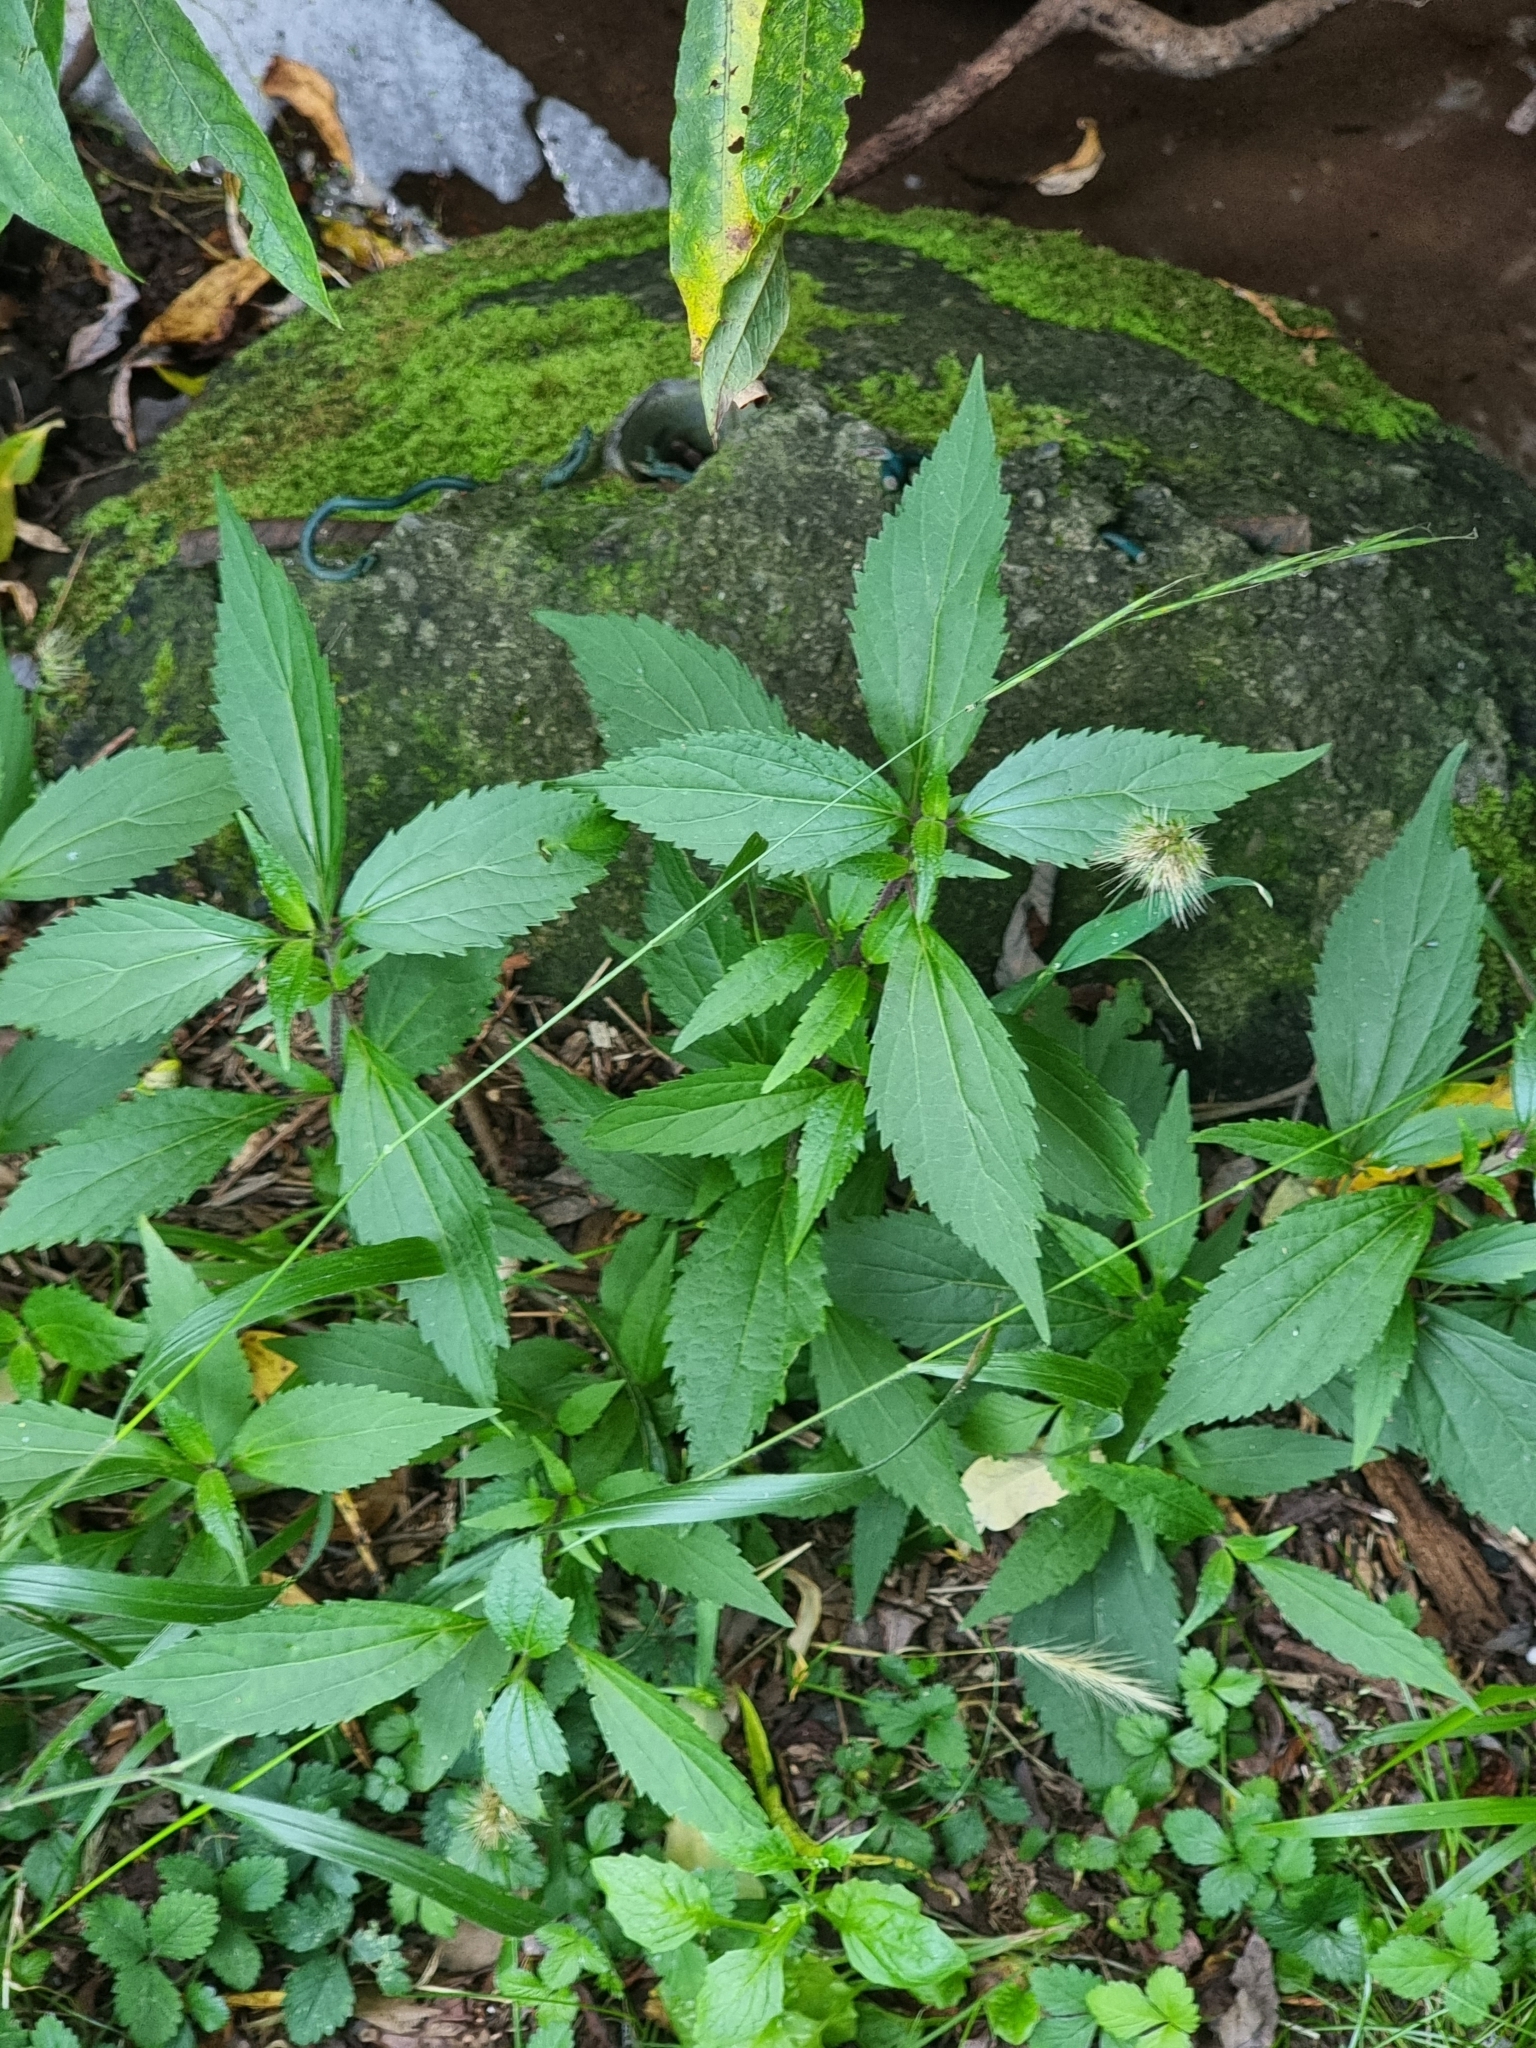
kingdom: Plantae
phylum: Tracheophyta
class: Magnoliopsida
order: Asterales
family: Asteraceae
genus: Ageratina
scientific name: Ageratina riparia
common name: Creeping croftonweed
